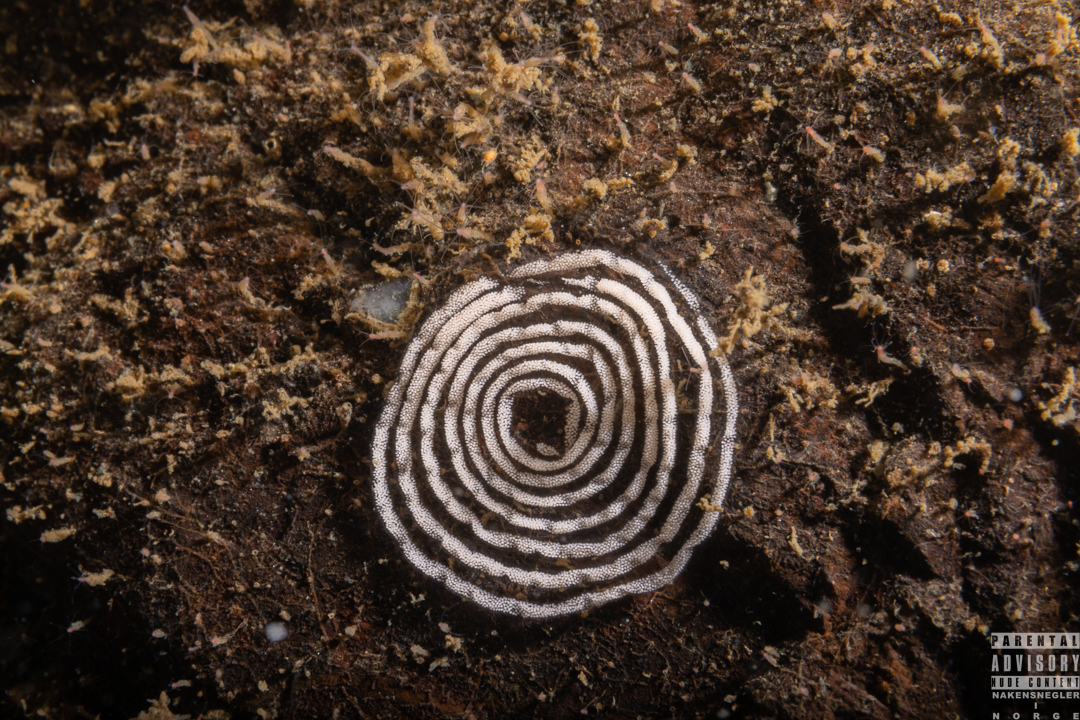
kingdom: Animalia
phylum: Mollusca
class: Gastropoda
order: Nudibranchia
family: Heroidae
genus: Hero
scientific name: Hero formosa
